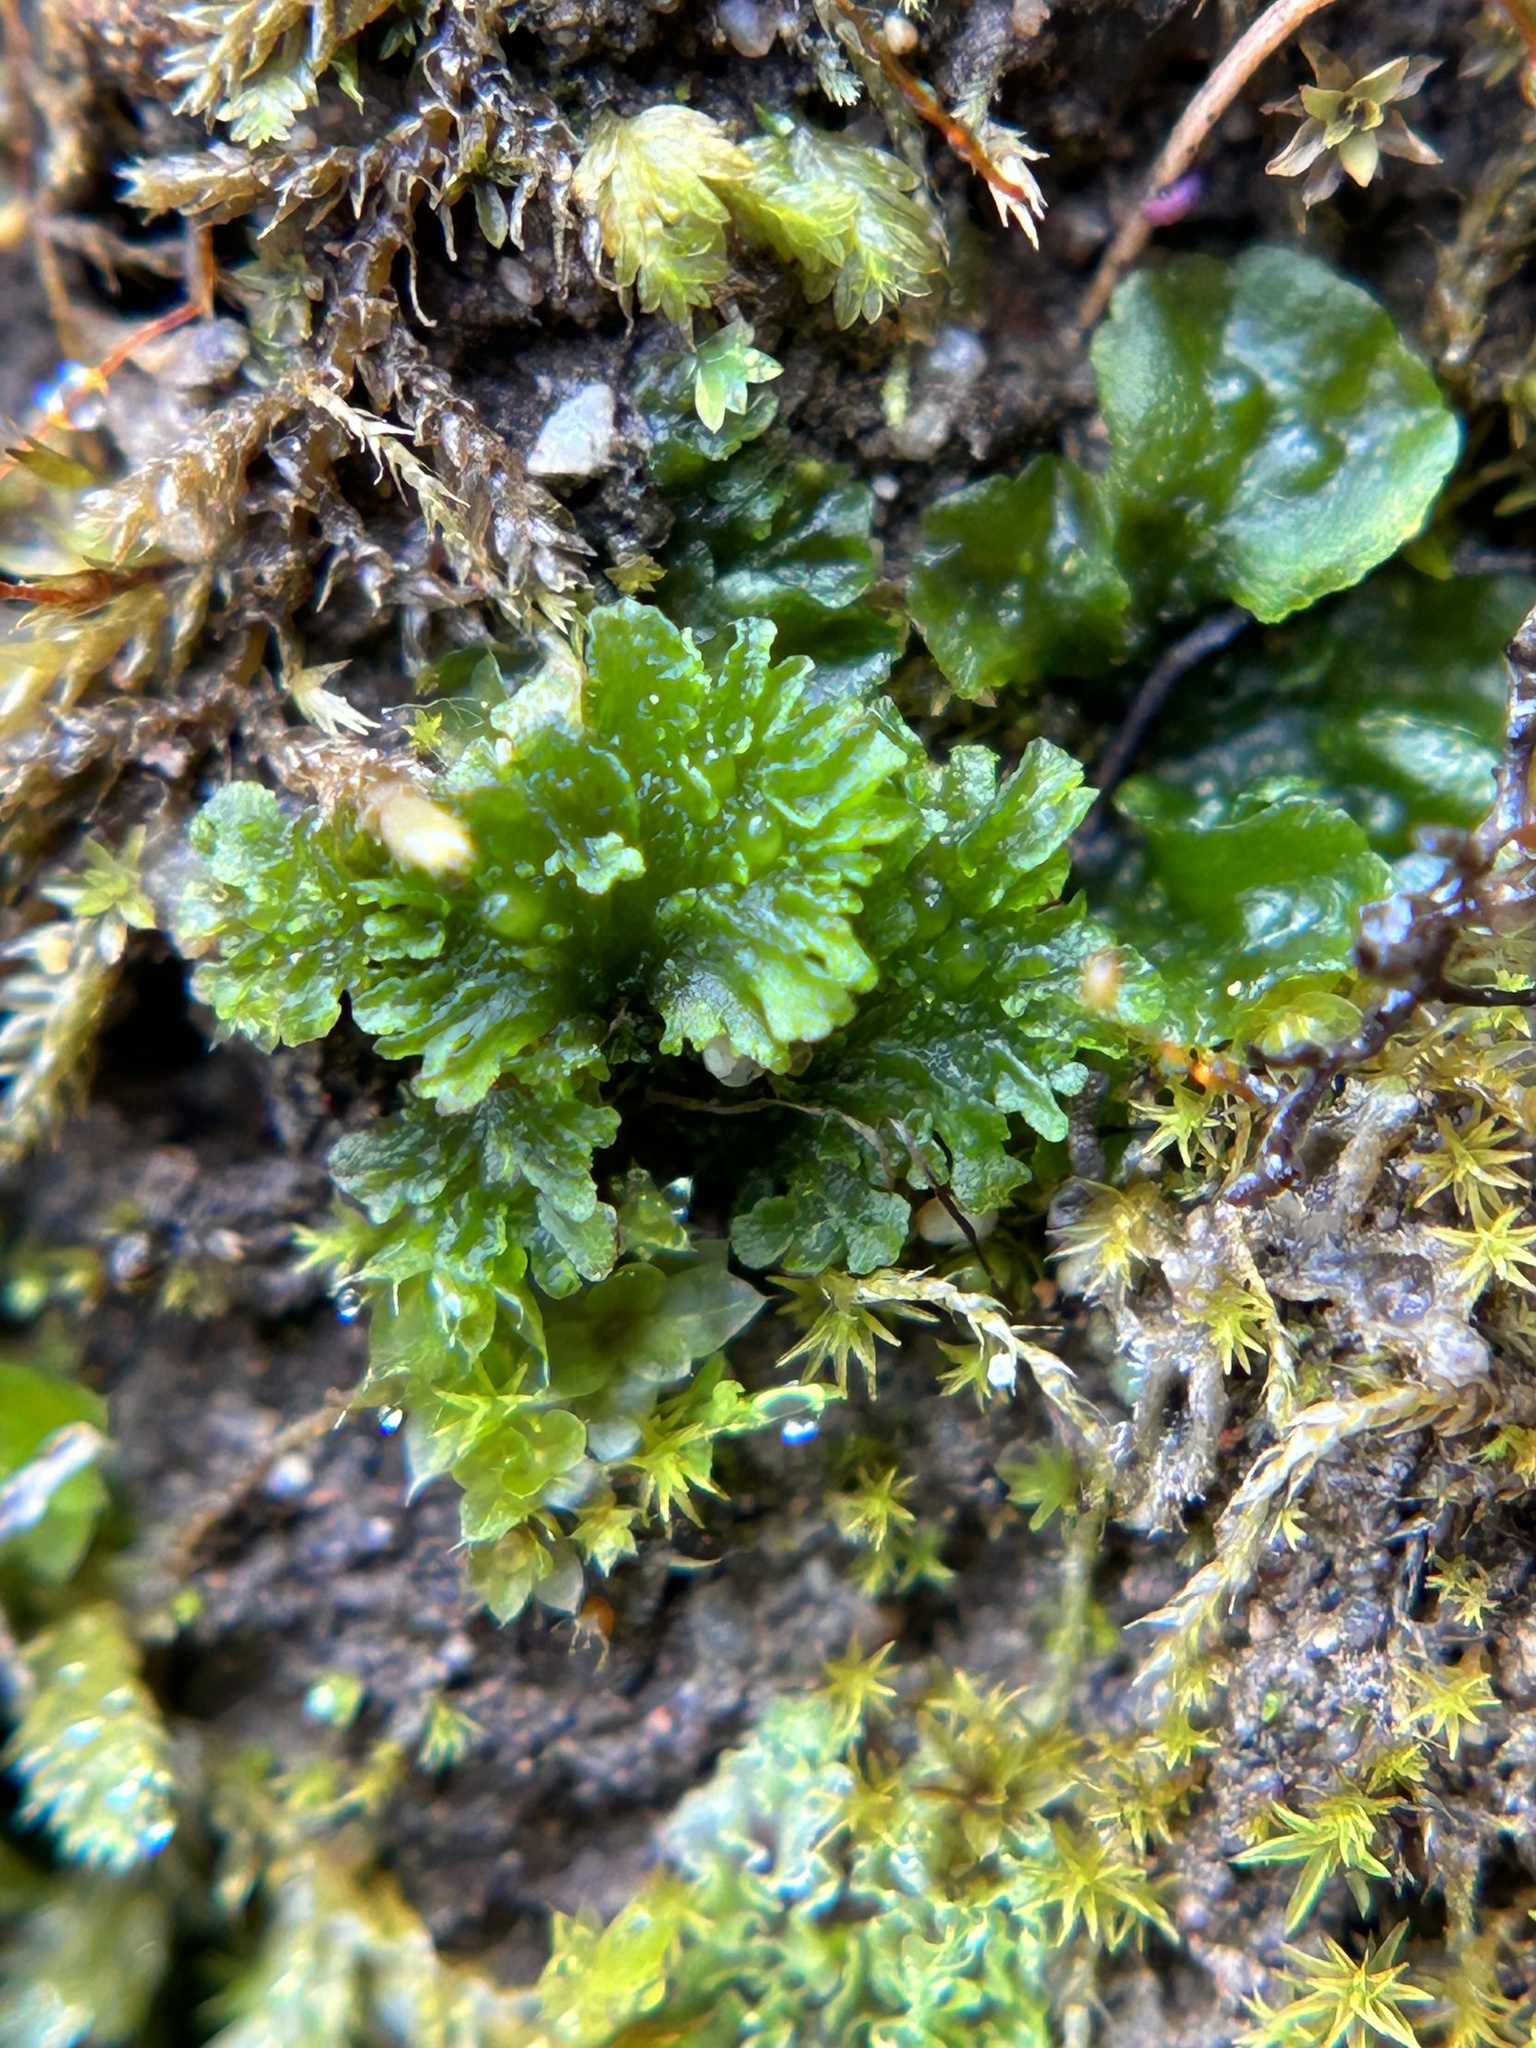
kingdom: Plantae
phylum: Anthocerotophyta
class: Anthocerotopsida
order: Anthocerotales
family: Anthocerotaceae
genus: Anthoceros
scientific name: Anthoceros fusiformis
